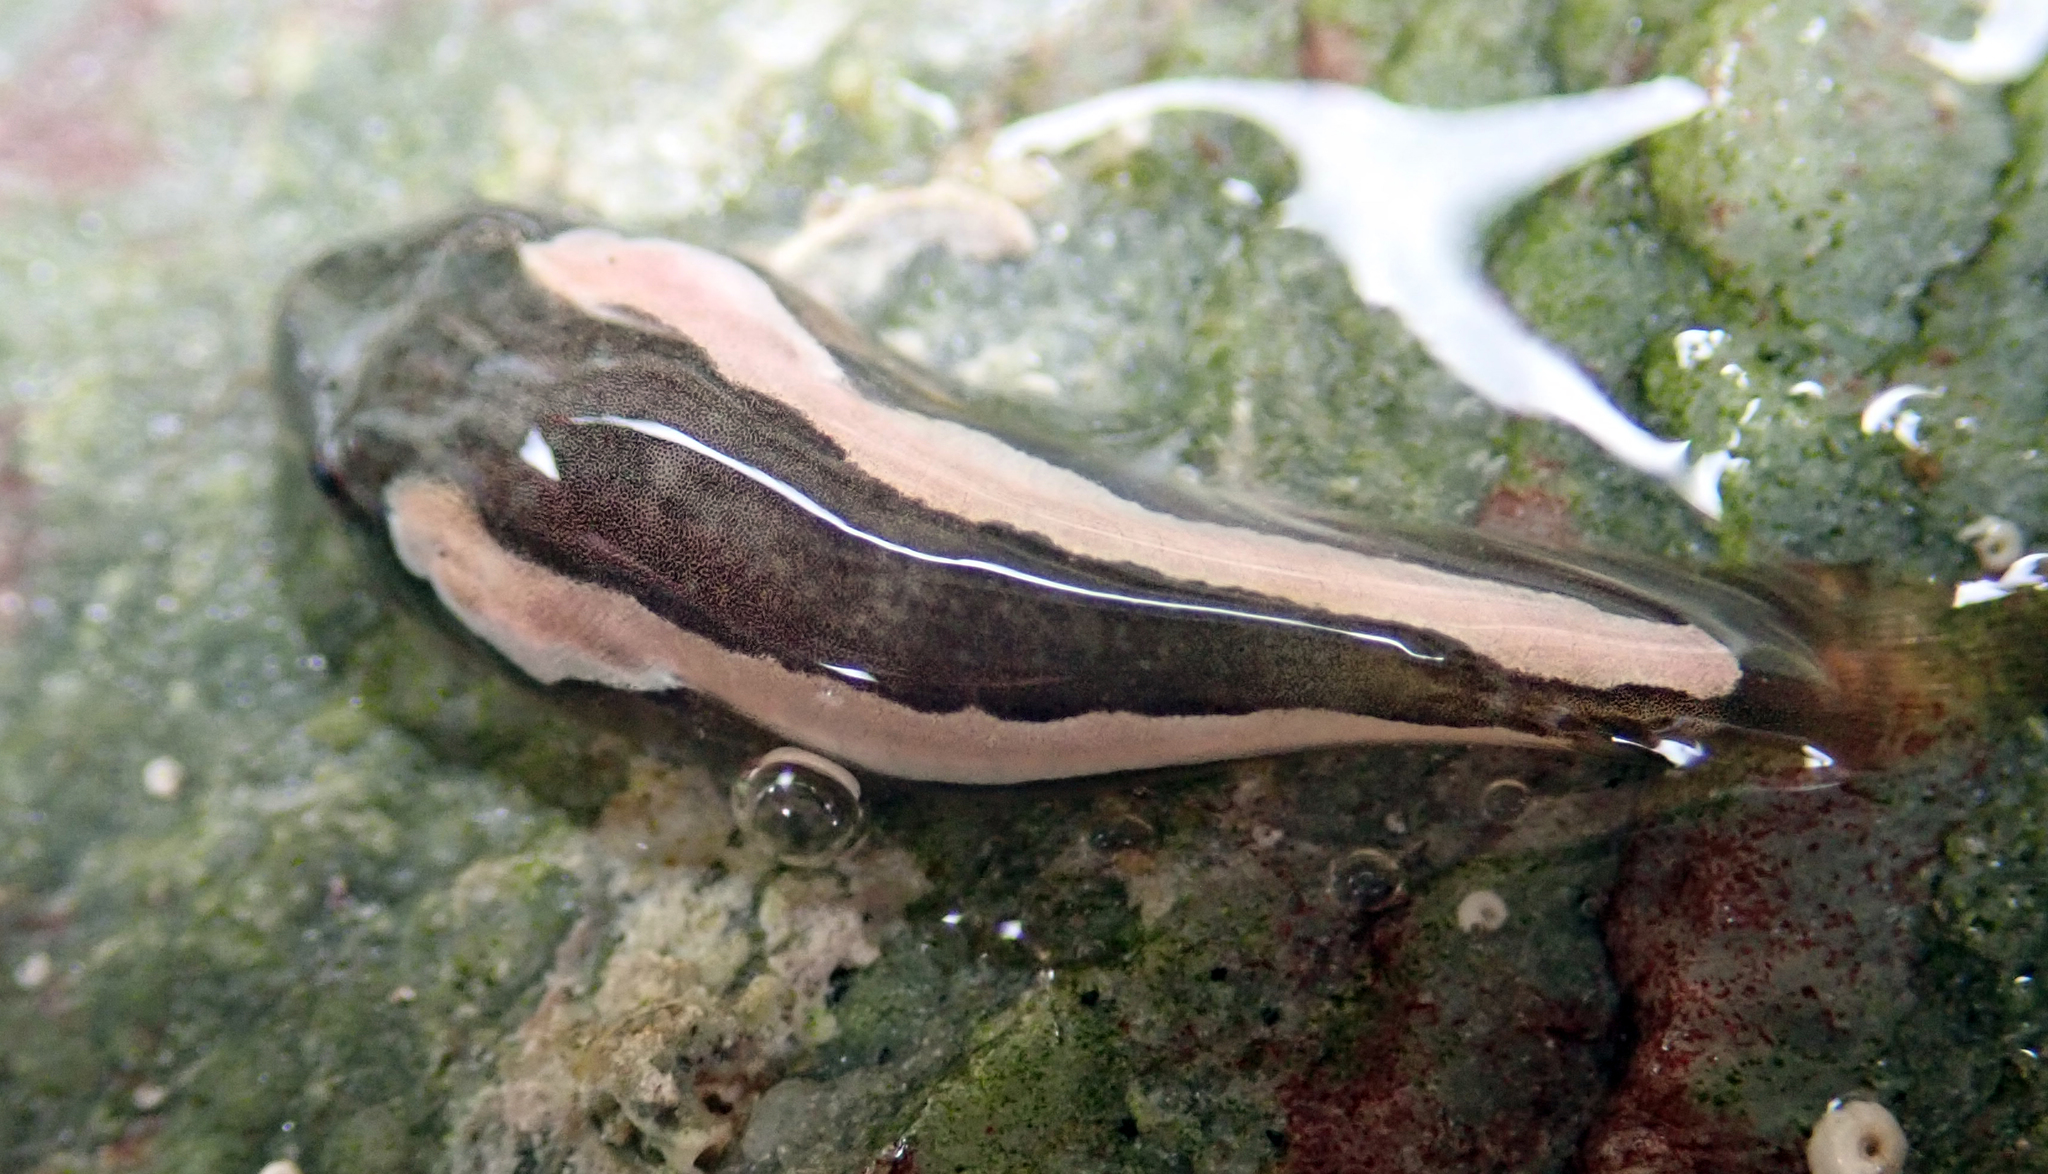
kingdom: Animalia
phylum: Chordata
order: Gobiesociformes
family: Gobiesocidae
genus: Trachelochismus
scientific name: Trachelochismus pinnulatus
